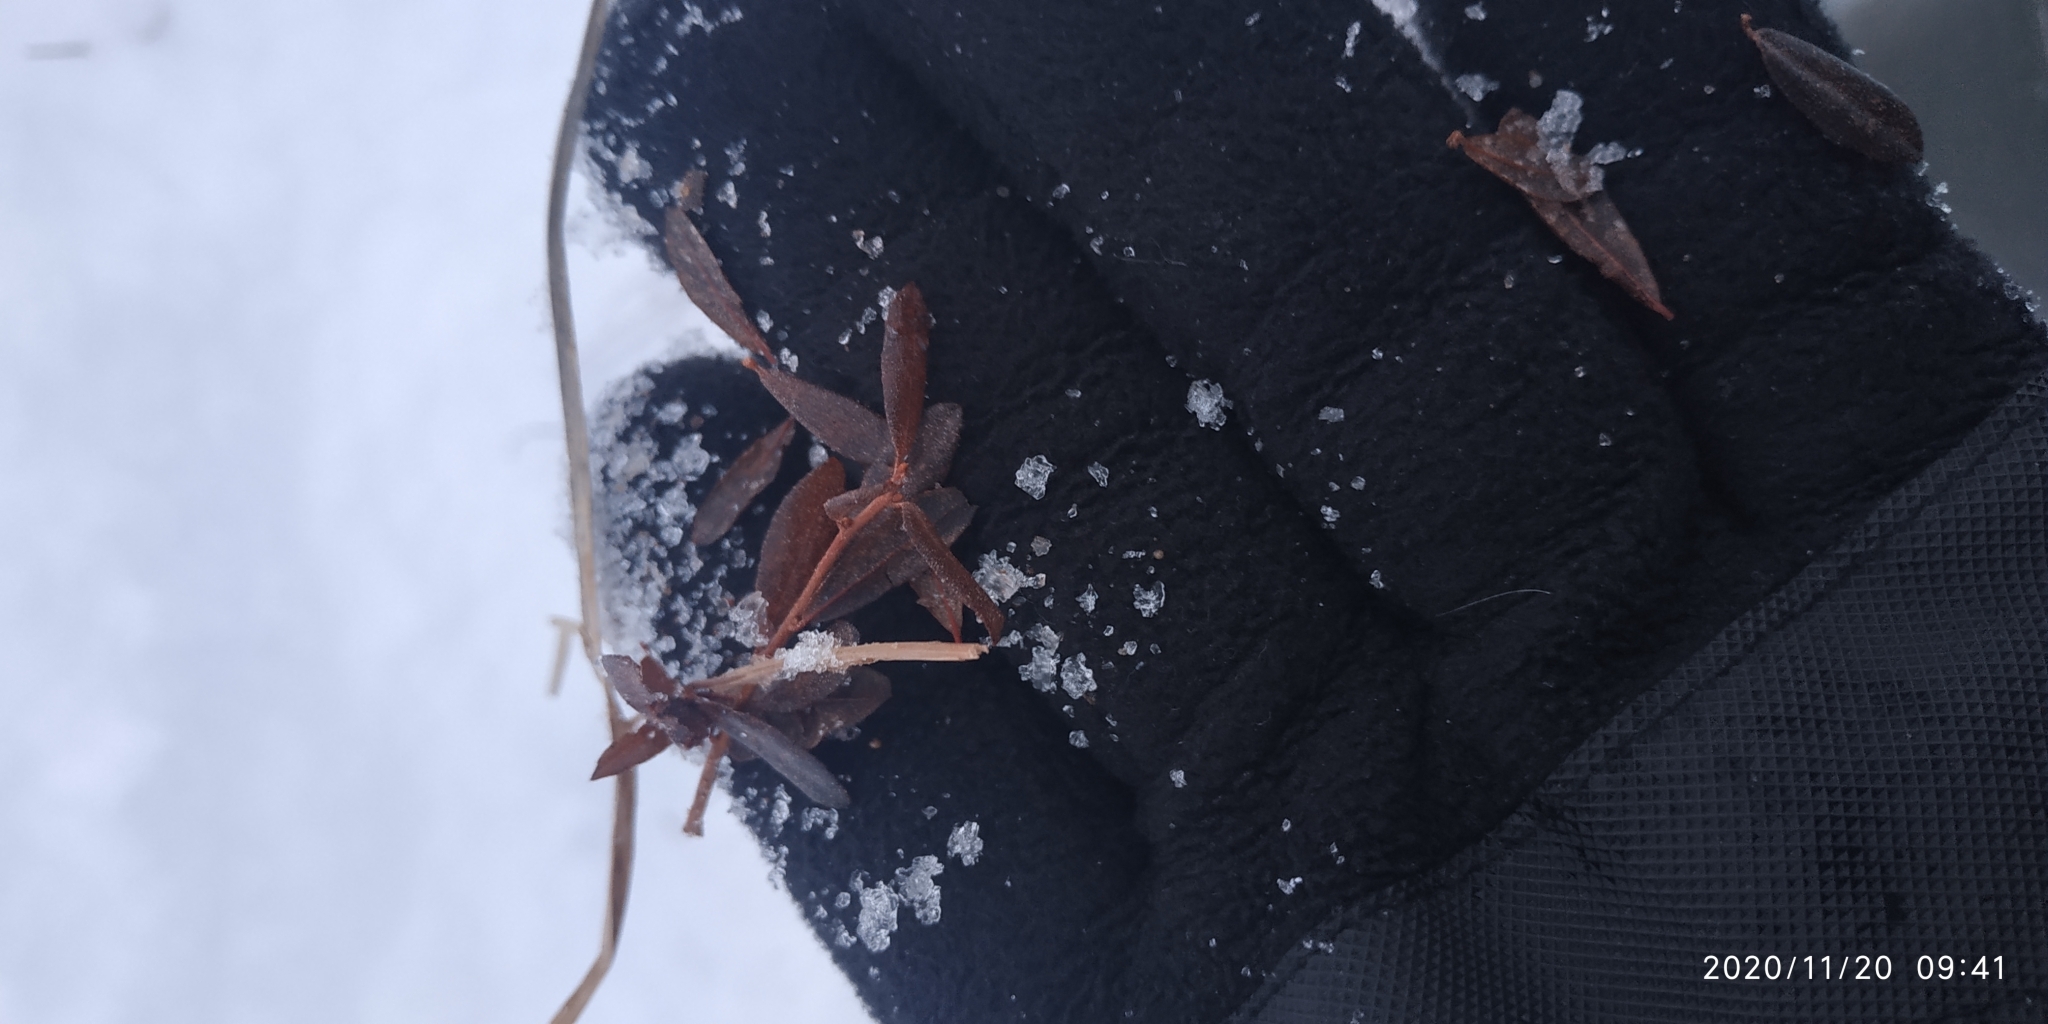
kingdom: Plantae
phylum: Tracheophyta
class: Magnoliopsida
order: Ericales
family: Ericaceae
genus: Chamaedaphne
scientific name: Chamaedaphne calyculata
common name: Leatherleaf
